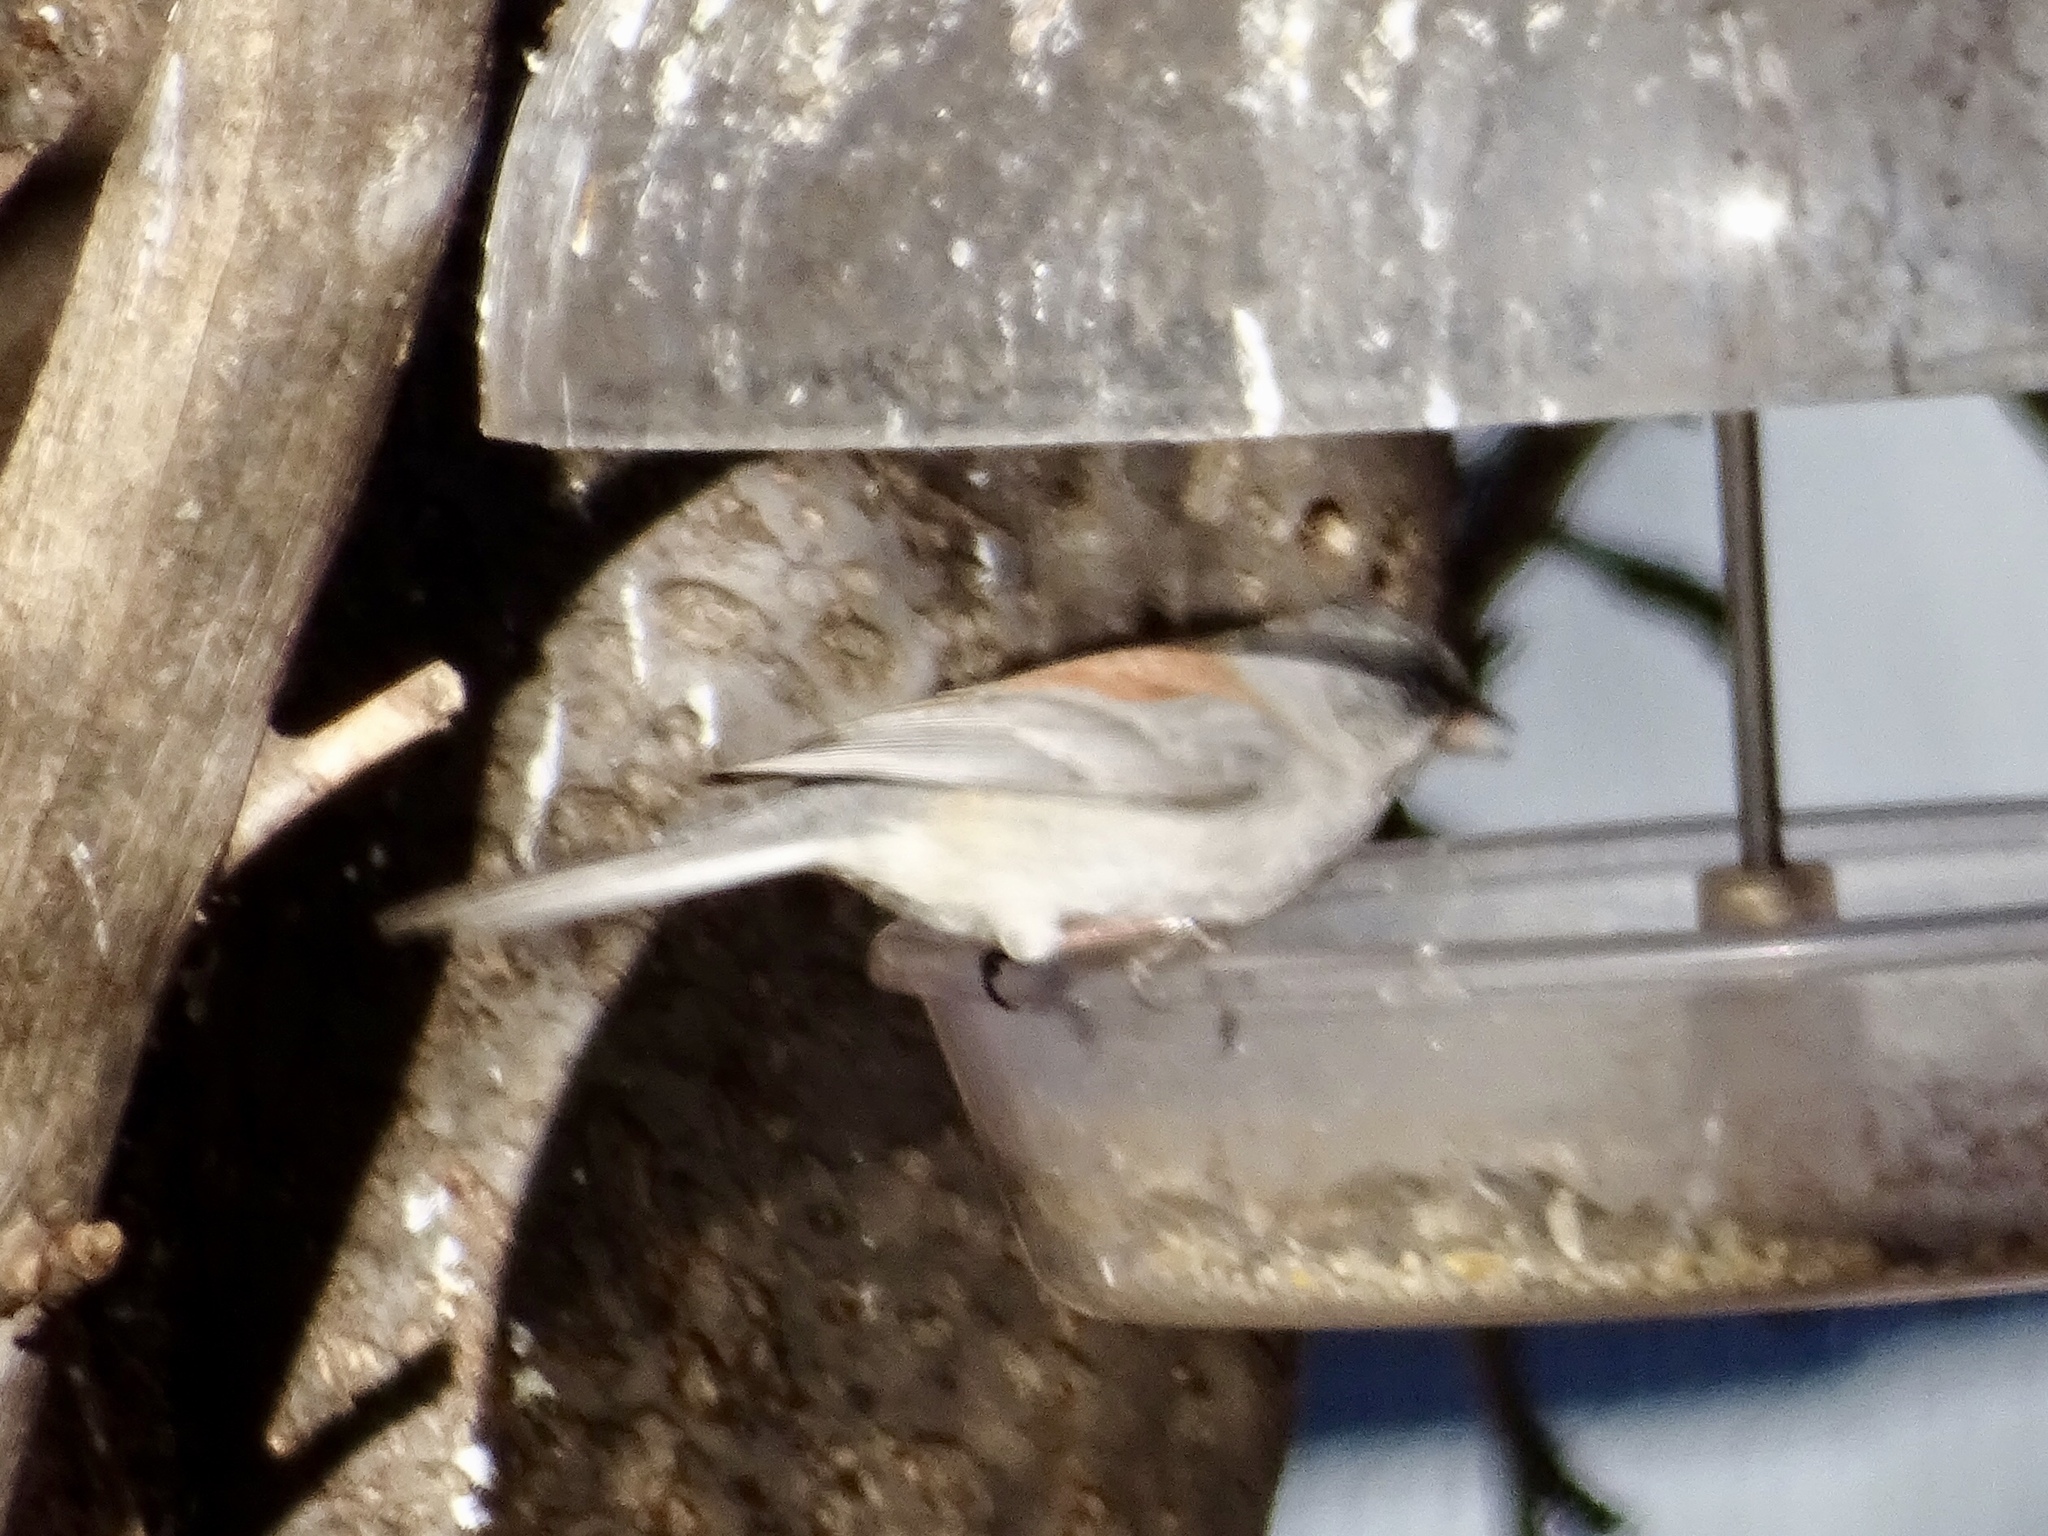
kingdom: Animalia
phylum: Chordata
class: Aves
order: Passeriformes
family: Passerellidae
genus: Junco
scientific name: Junco hyemalis
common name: Dark-eyed junco
